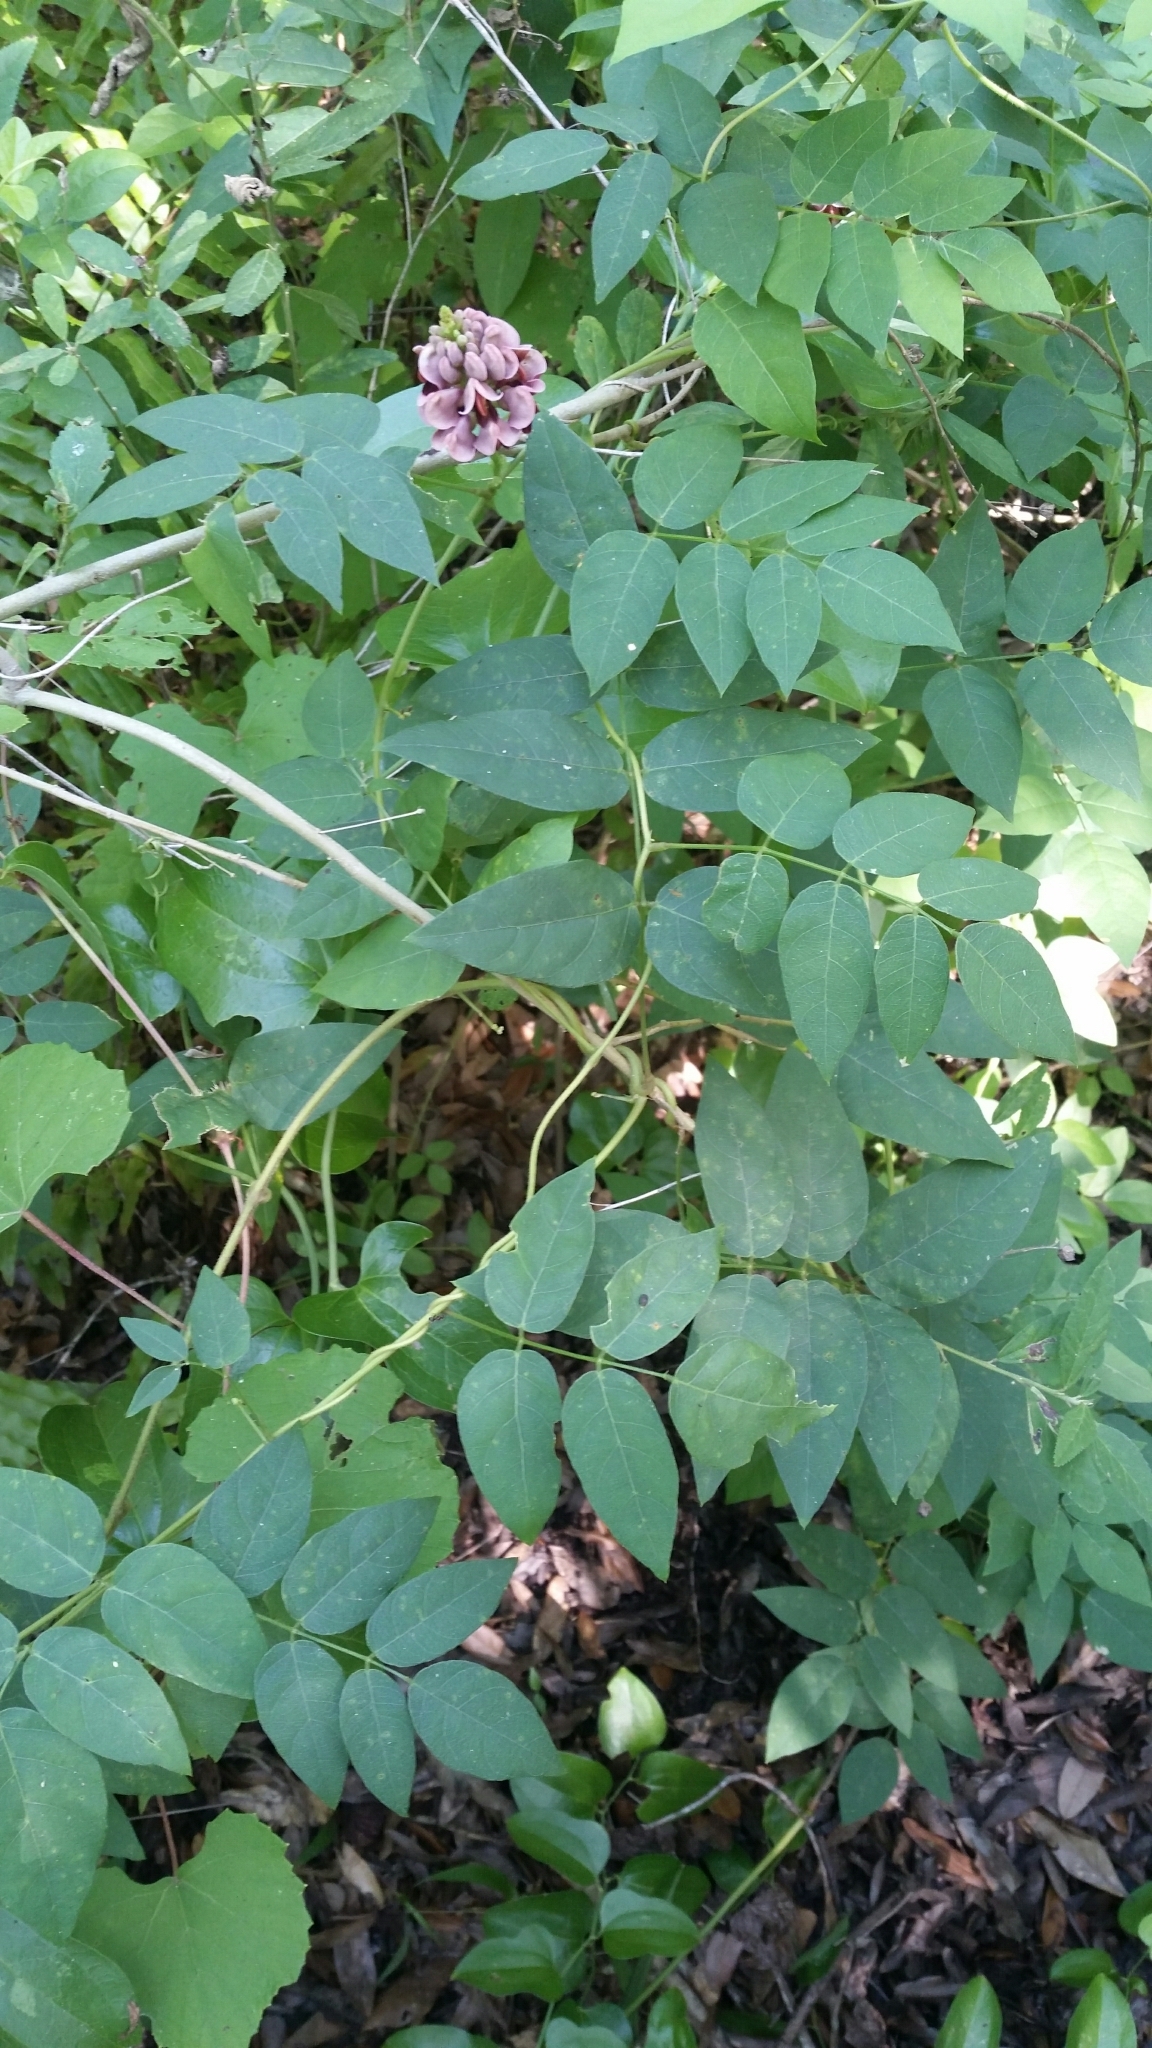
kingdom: Plantae
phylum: Tracheophyta
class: Magnoliopsida
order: Fabales
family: Fabaceae
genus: Apios
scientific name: Apios americana
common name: American potato-bean
